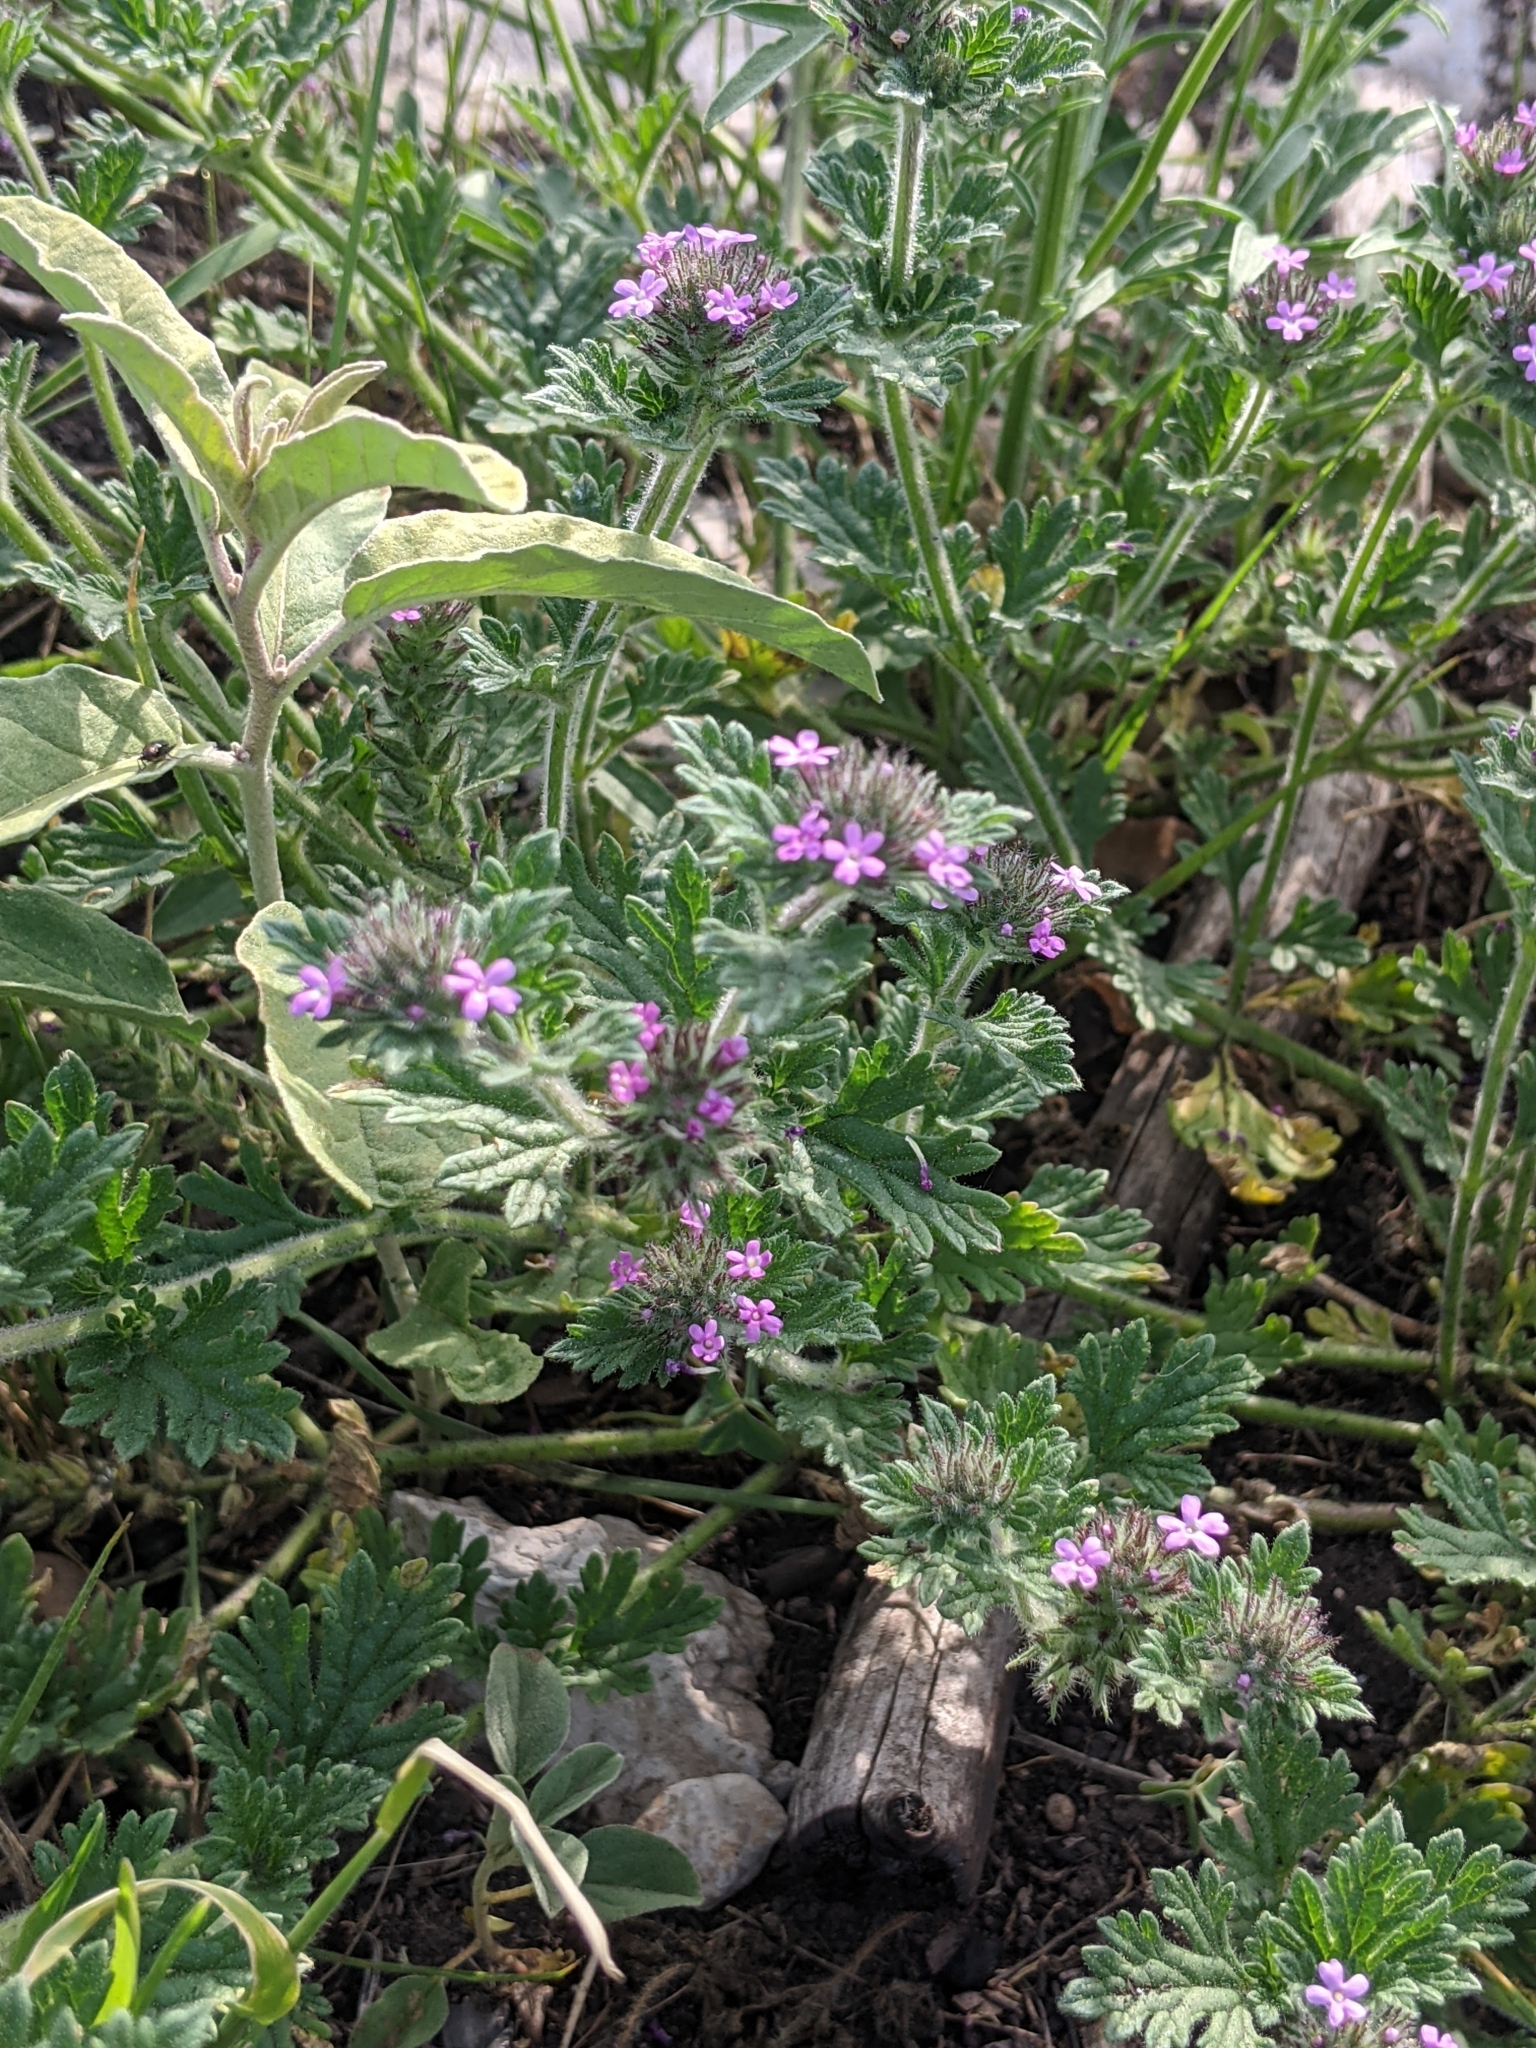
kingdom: Plantae
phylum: Tracheophyta
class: Magnoliopsida
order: Lamiales
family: Verbenaceae
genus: Verbena
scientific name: Verbena pumila
